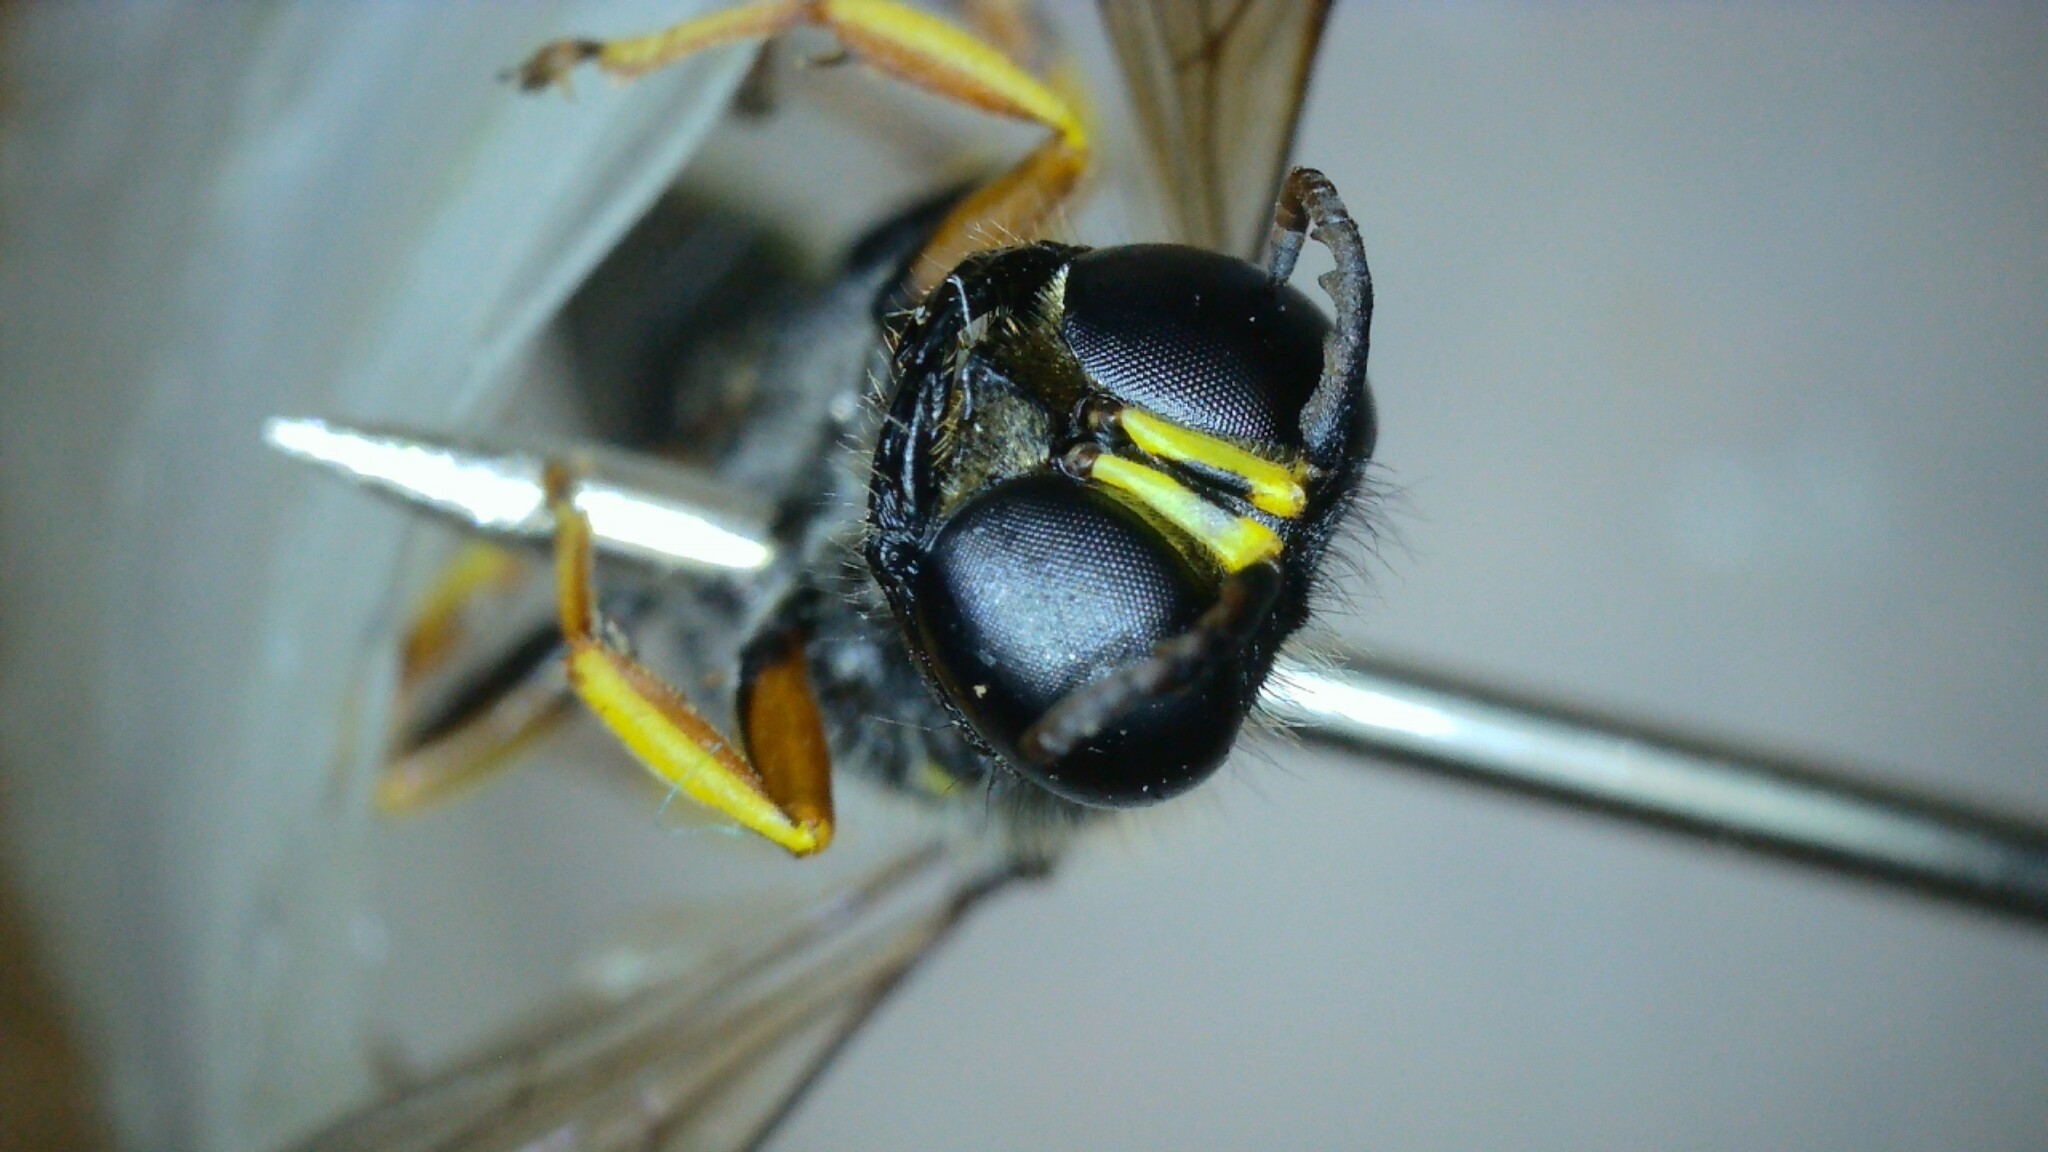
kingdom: Animalia
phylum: Arthropoda
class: Insecta
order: Hymenoptera
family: Crabronidae
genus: Ectemnius
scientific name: Ectemnius cavifrons
